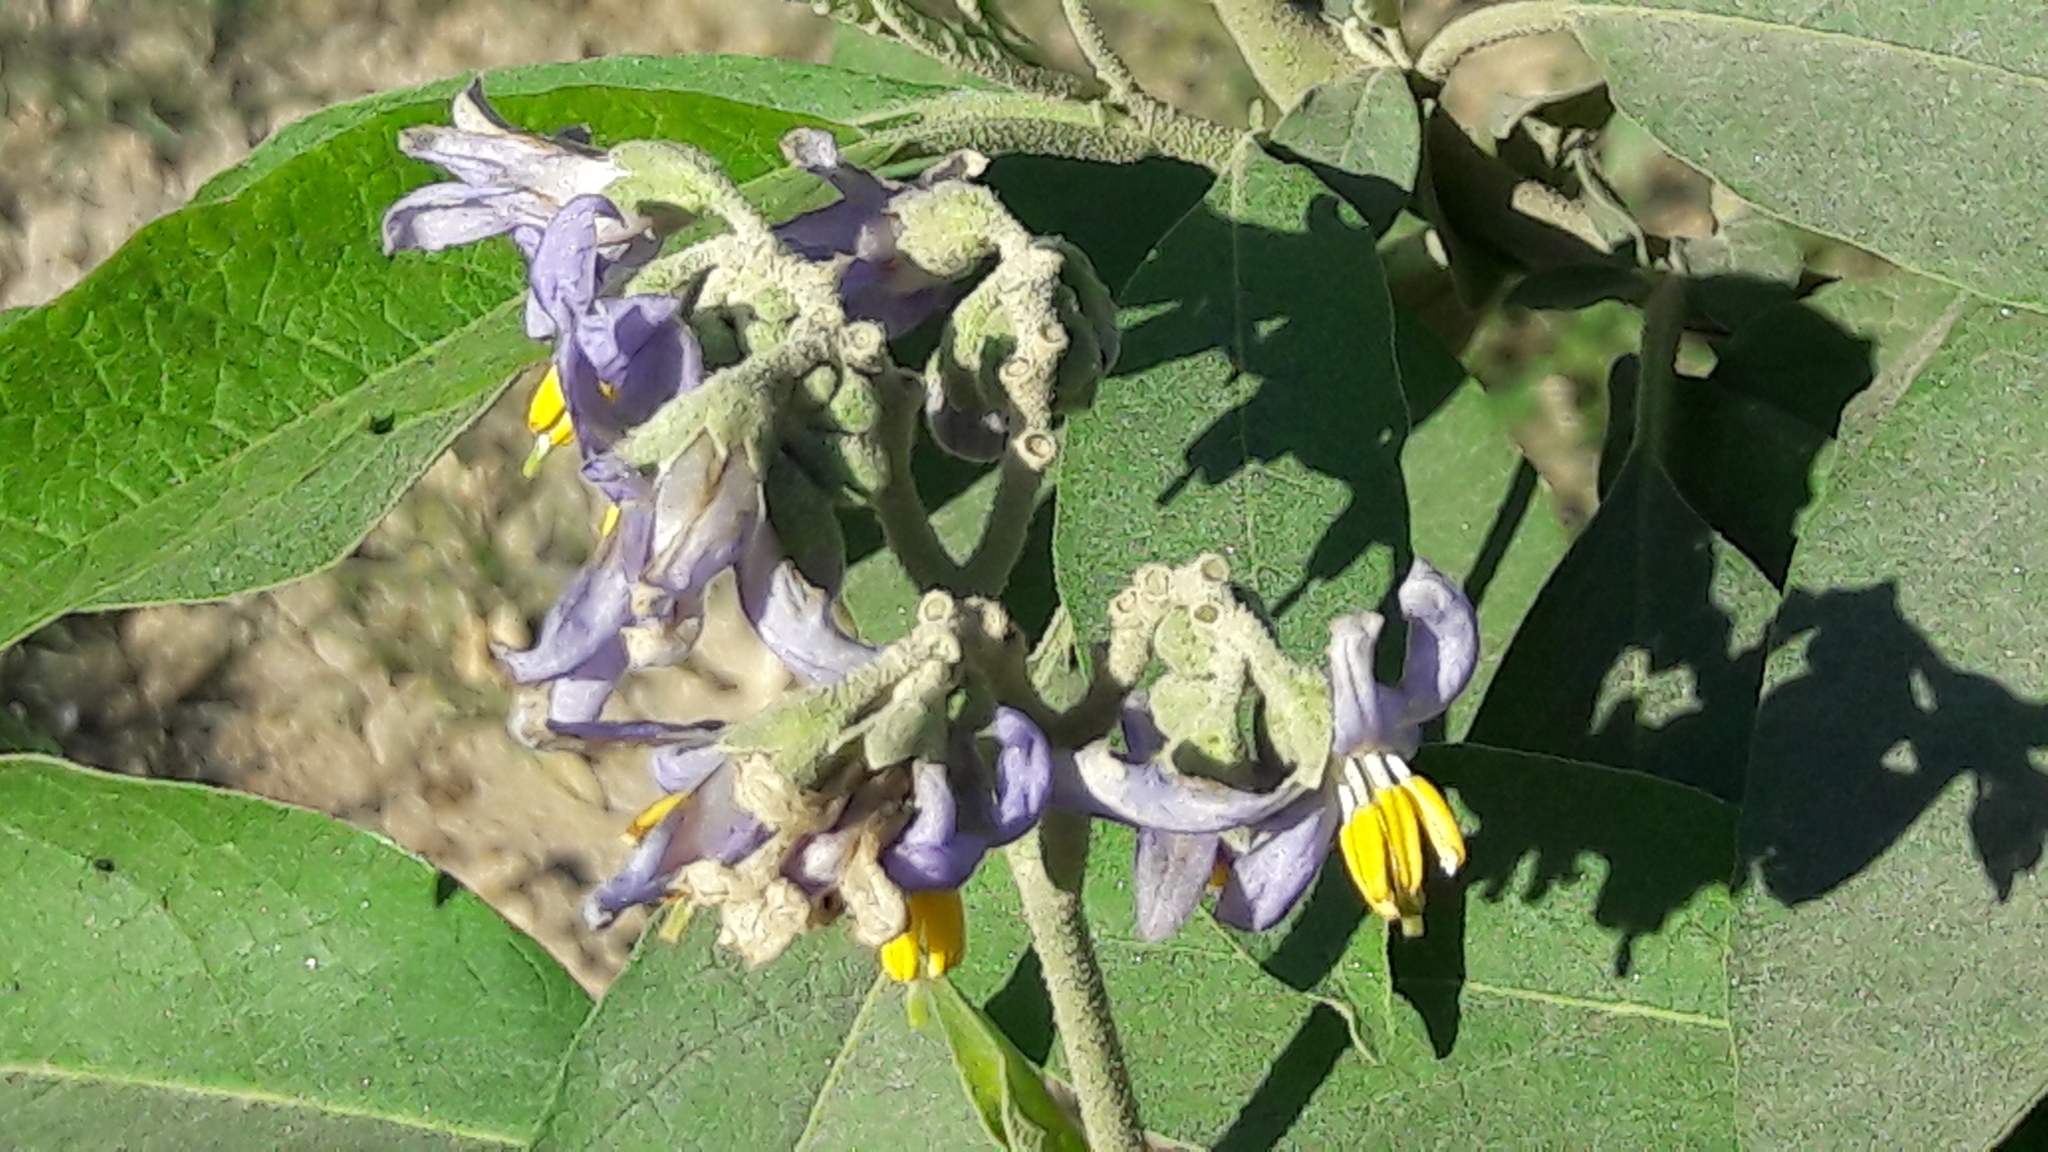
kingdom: Plantae
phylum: Tracheophyta
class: Magnoliopsida
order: Solanales
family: Solanaceae
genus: Solanum
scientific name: Solanum granulosoleprosum
